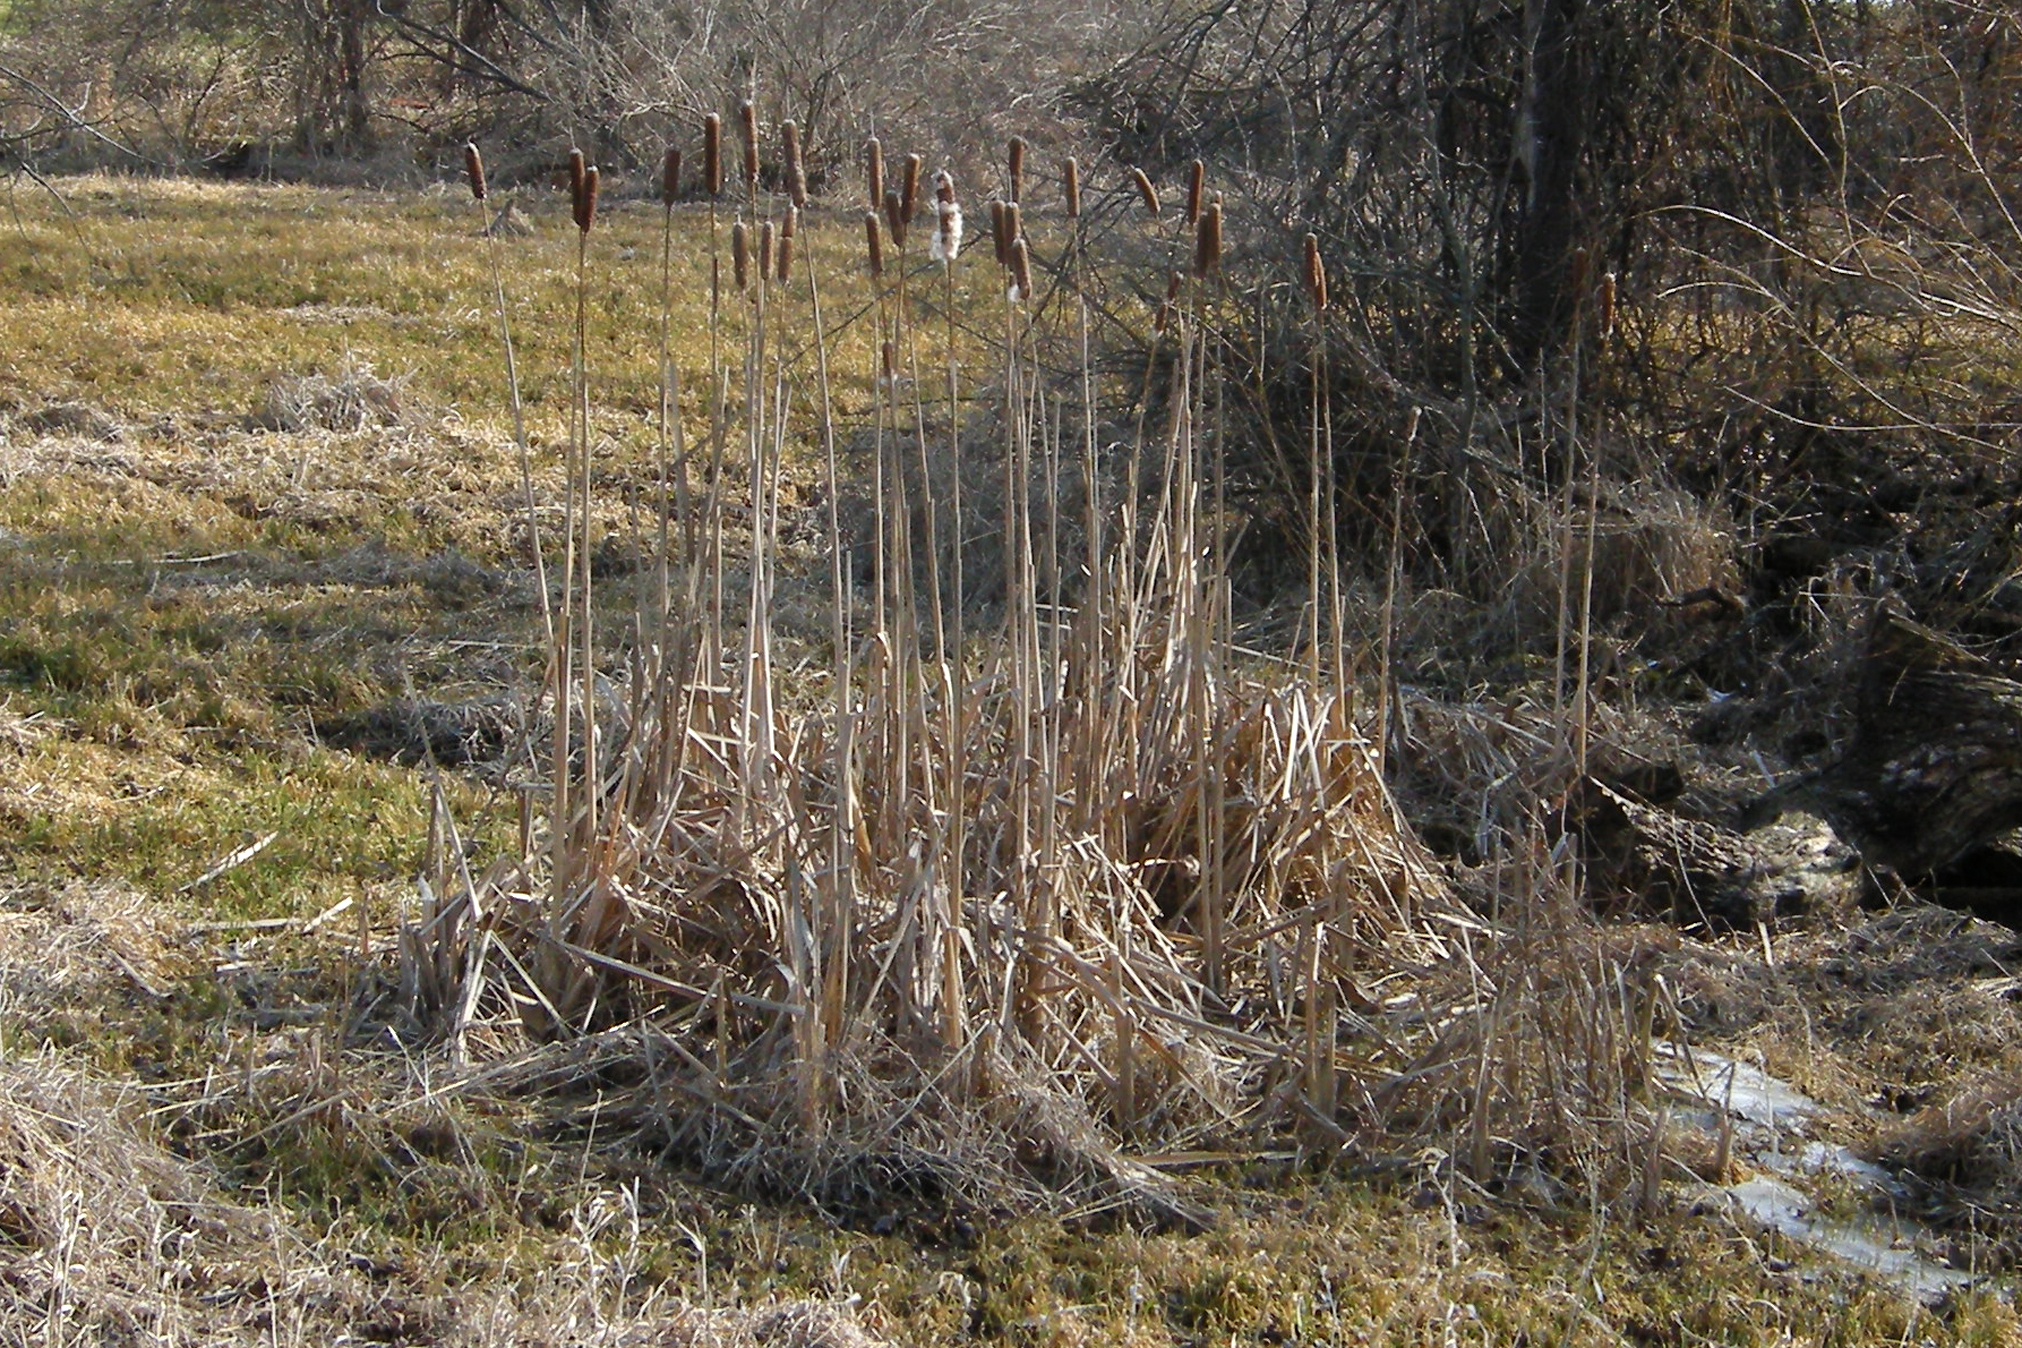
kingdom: Plantae
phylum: Tracheophyta
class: Liliopsida
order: Poales
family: Typhaceae
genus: Typha
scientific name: Typha latifolia
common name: Broadleaf cattail
